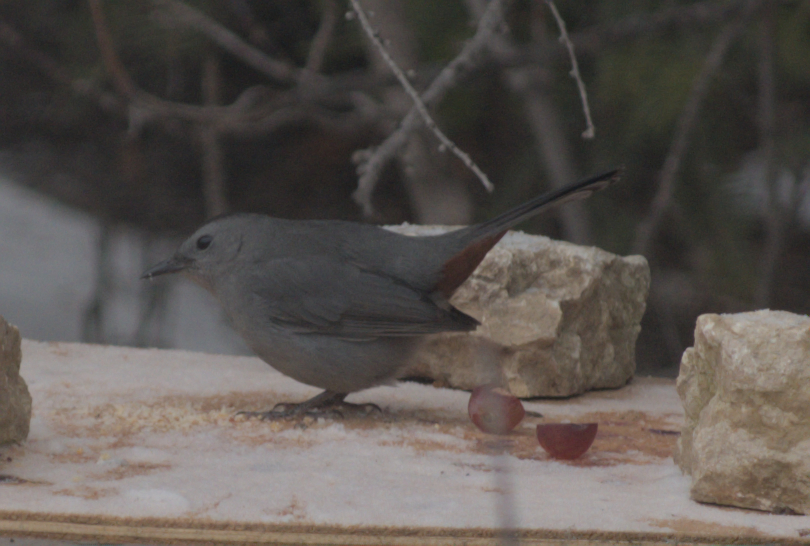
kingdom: Animalia
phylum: Chordata
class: Aves
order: Passeriformes
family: Mimidae
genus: Dumetella
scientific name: Dumetella carolinensis
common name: Gray catbird
